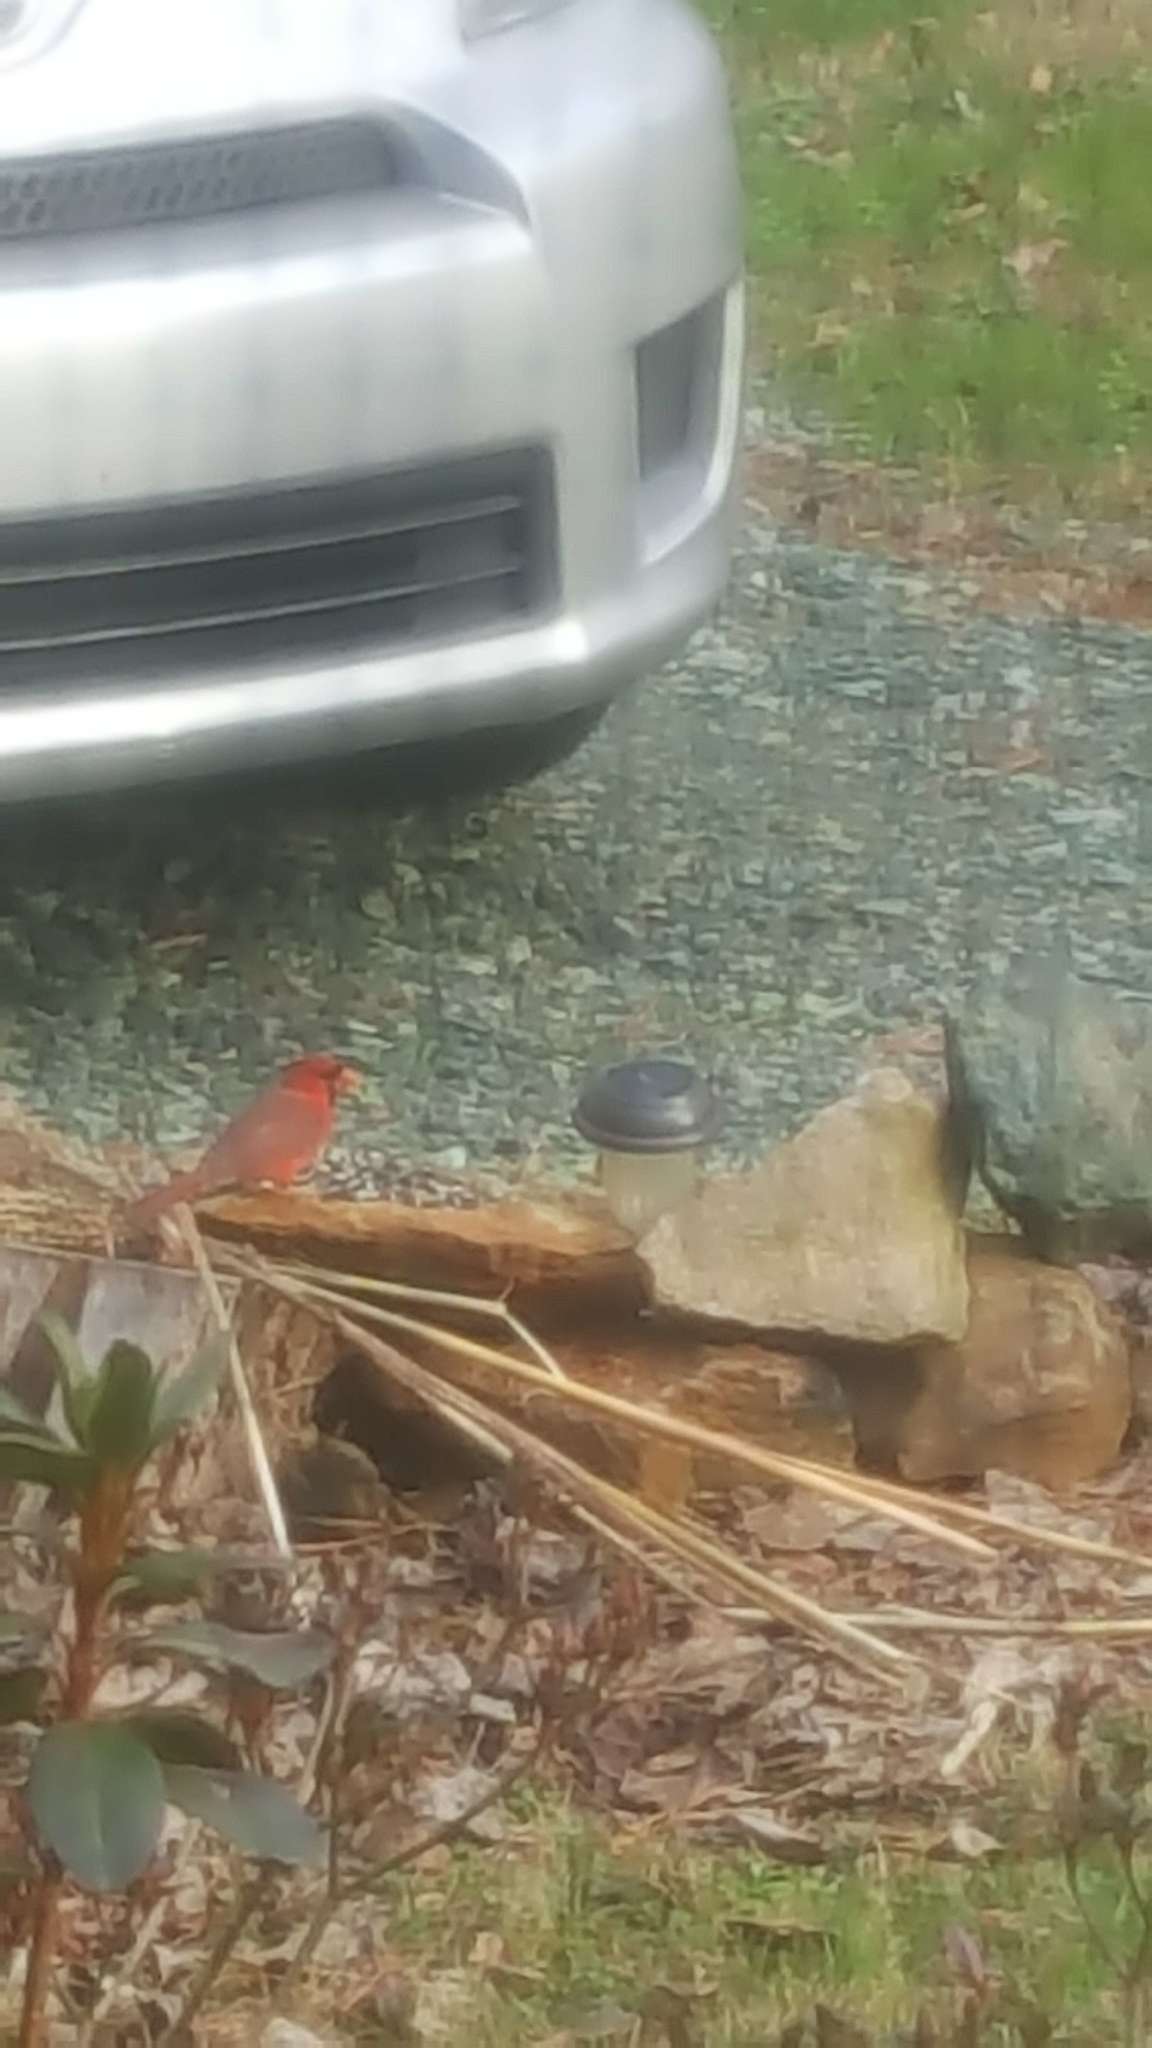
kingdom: Animalia
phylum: Chordata
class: Aves
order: Passeriformes
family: Cardinalidae
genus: Cardinalis
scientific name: Cardinalis cardinalis
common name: Northern cardinal
